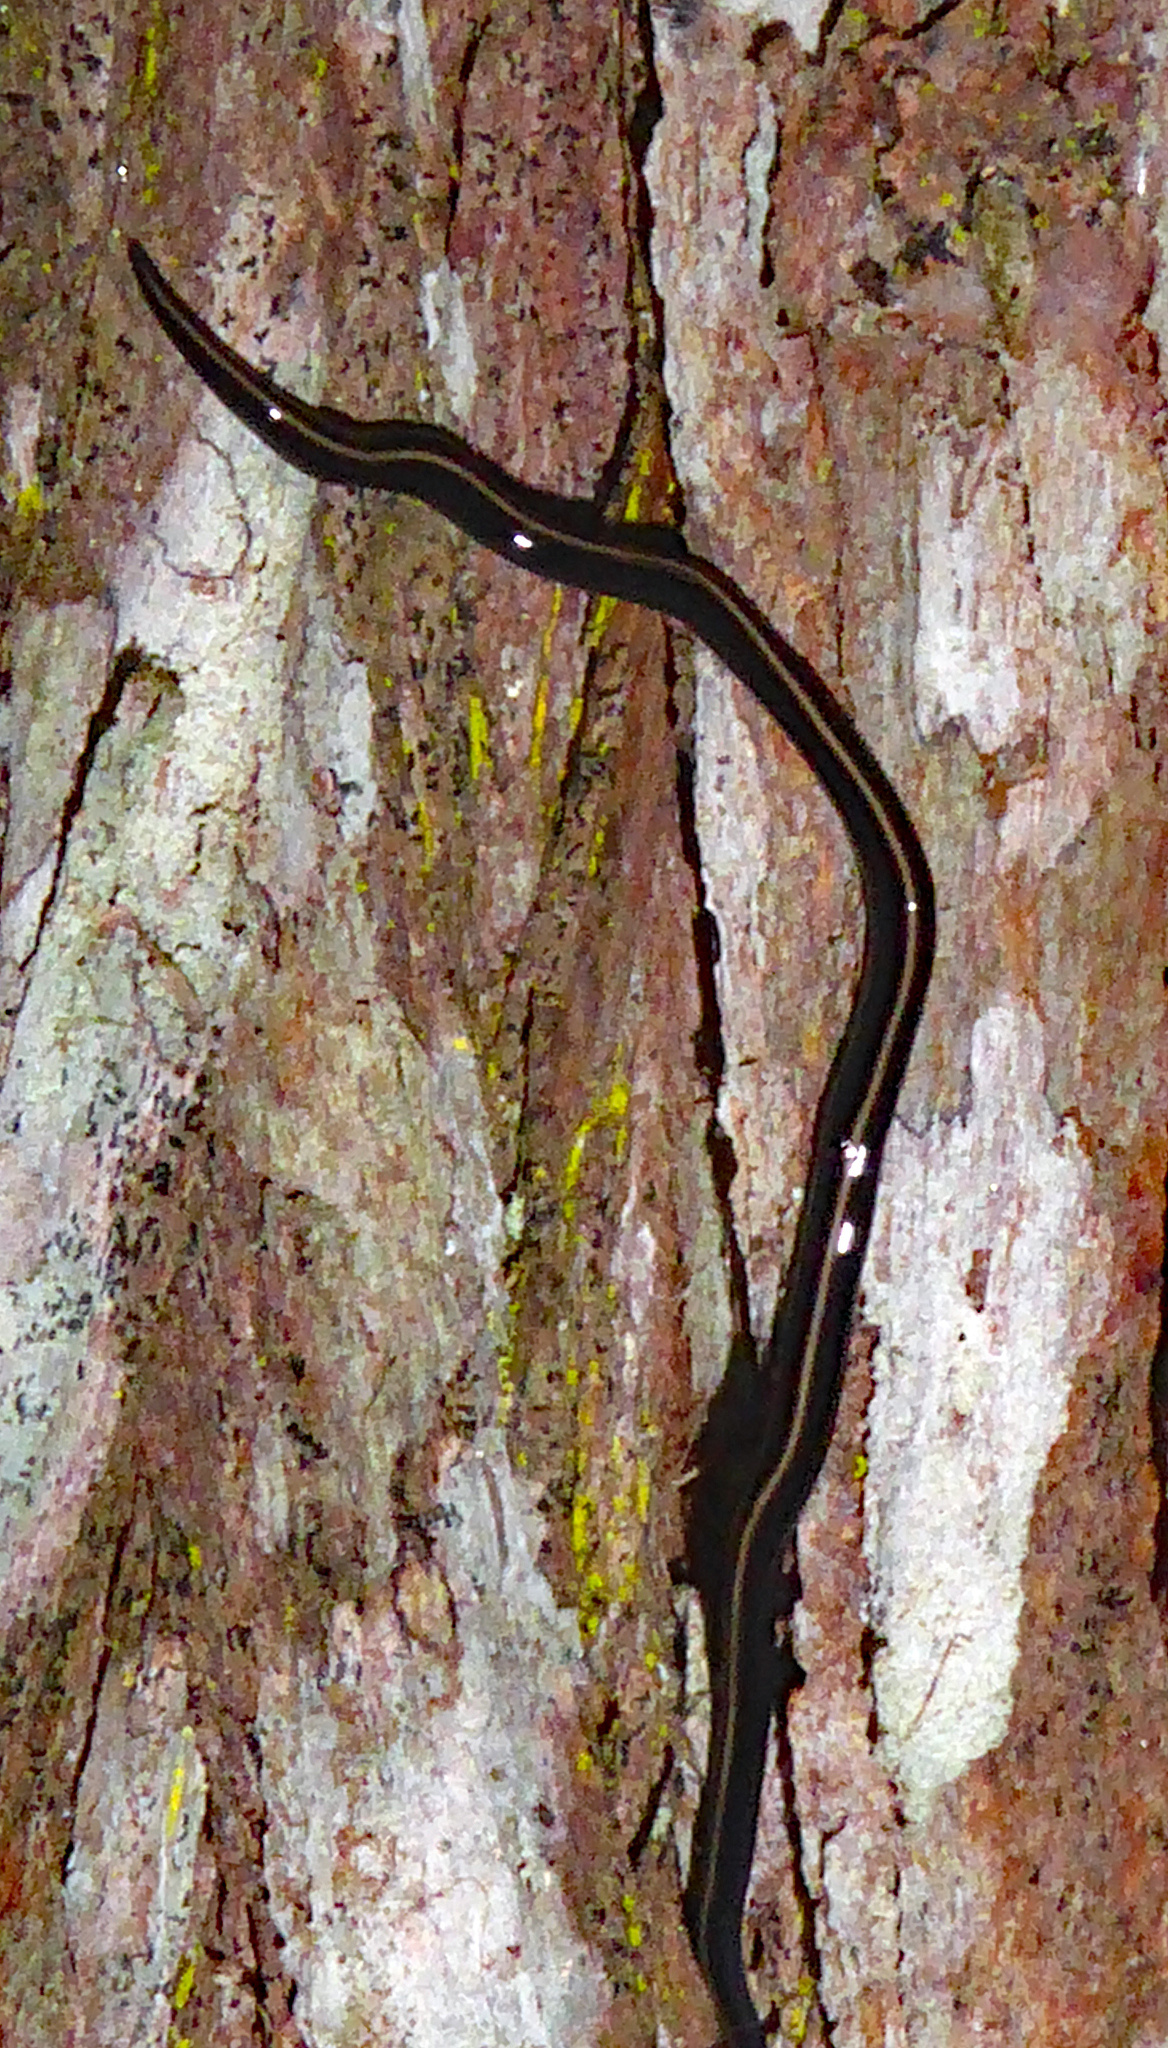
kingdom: Animalia
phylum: Platyhelminthes
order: Tricladida
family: Geoplanidae
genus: Caenoplana
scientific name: Caenoplana coerulea
